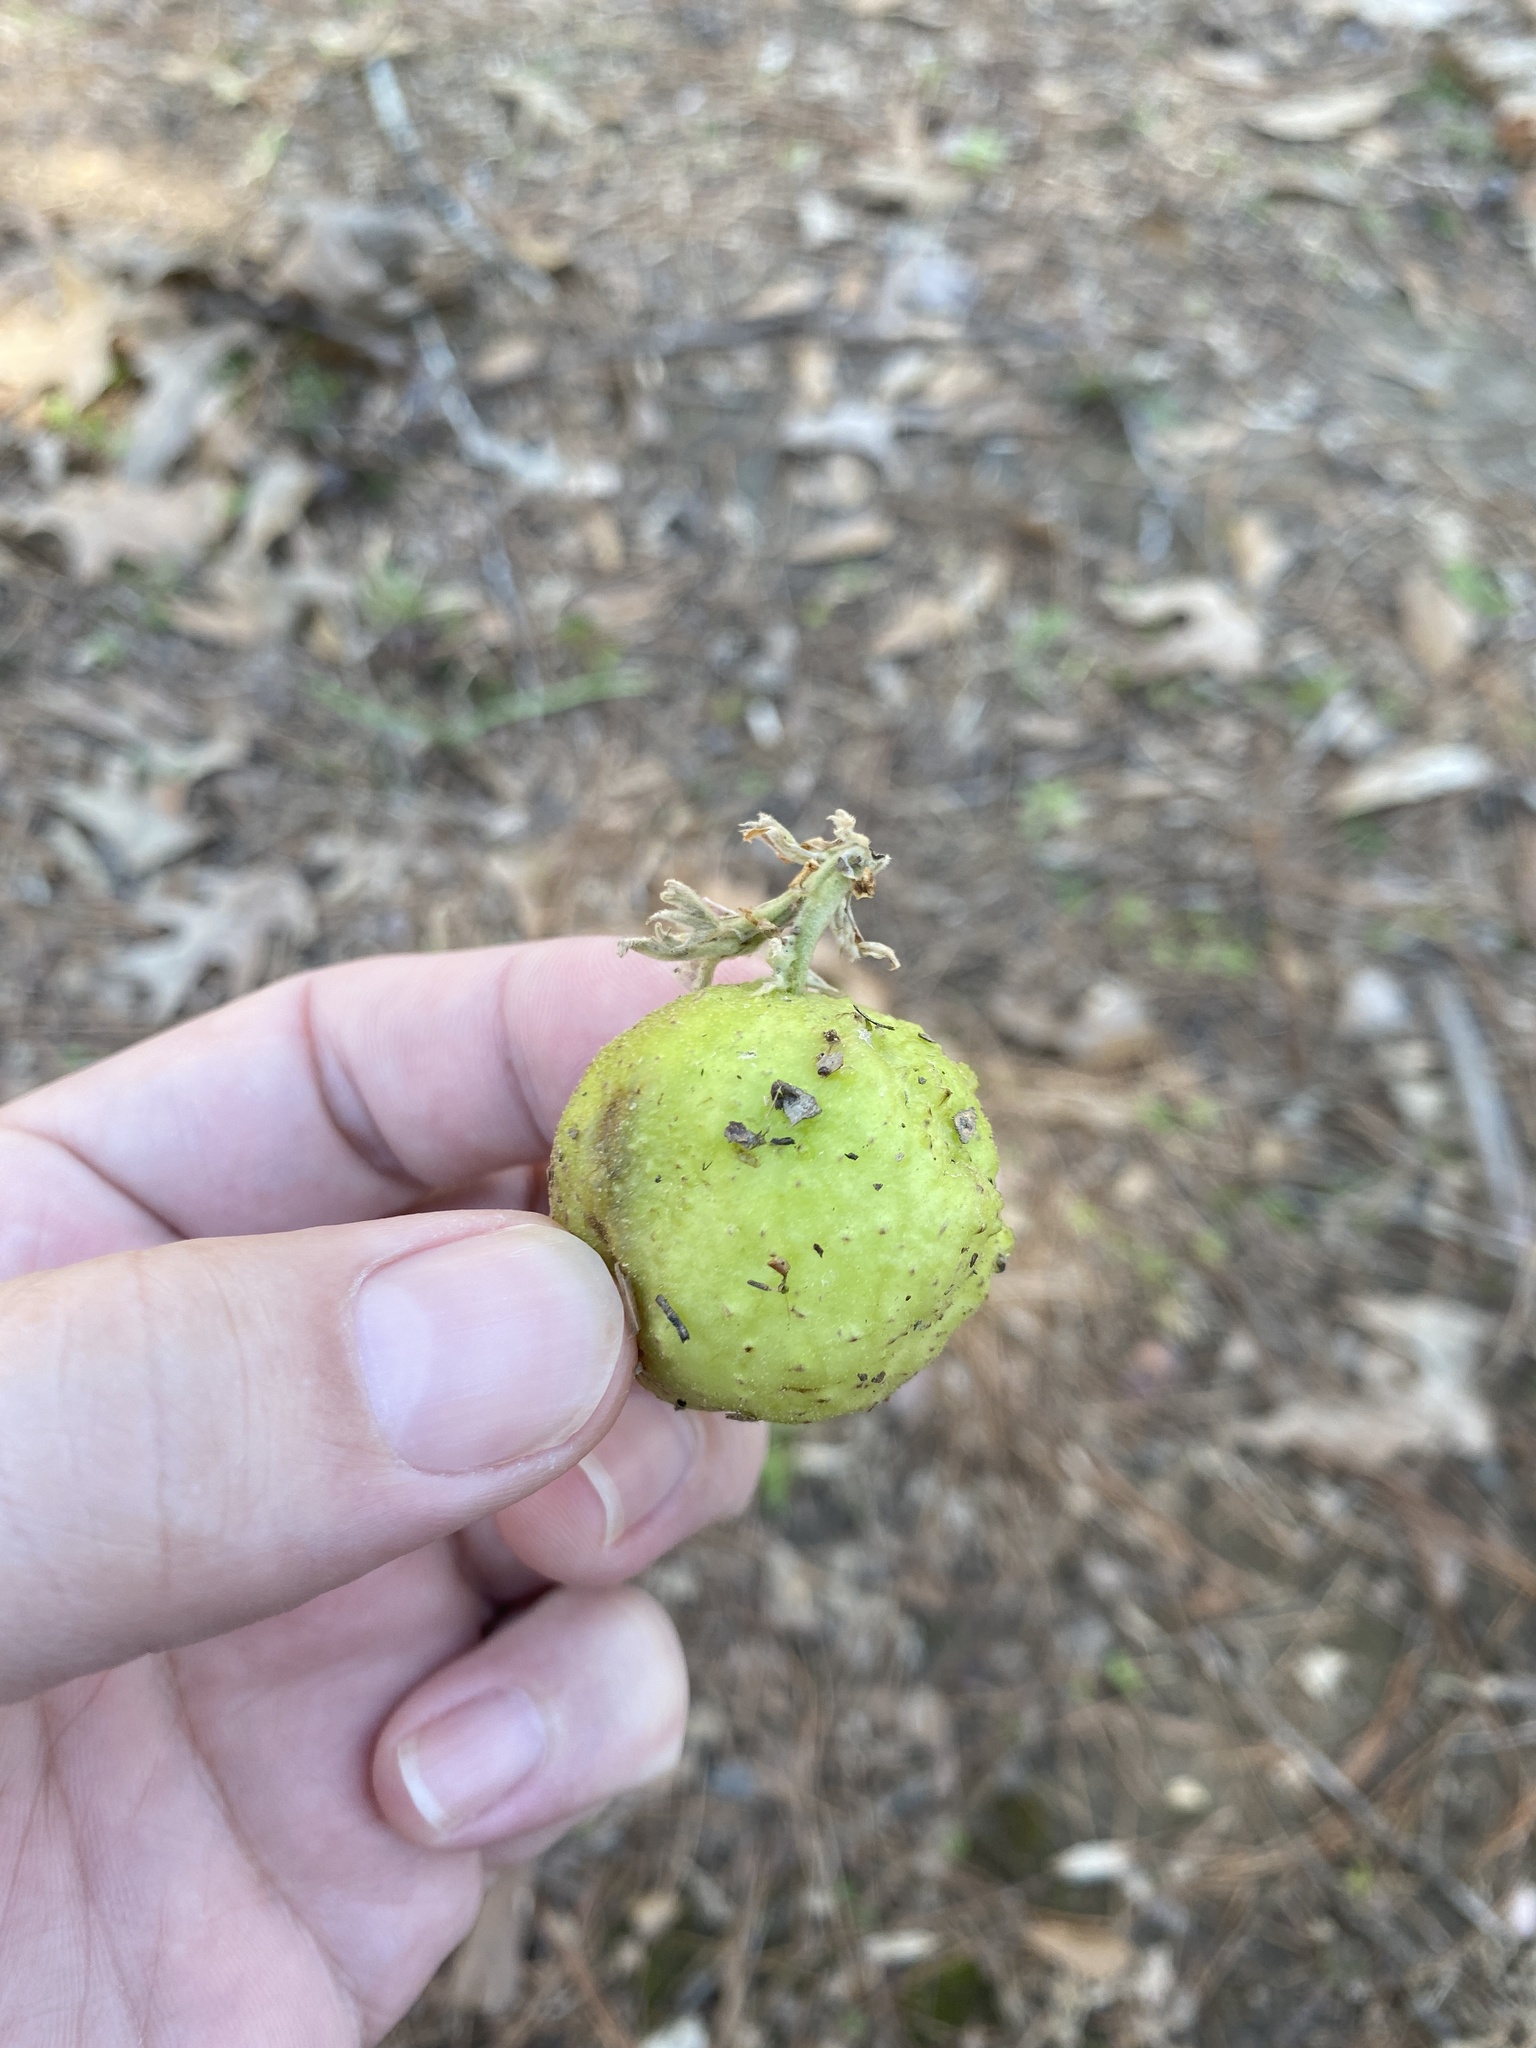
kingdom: Animalia
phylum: Arthropoda
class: Insecta
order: Hymenoptera
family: Cynipidae
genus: Amphibolips
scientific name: Amphibolips
